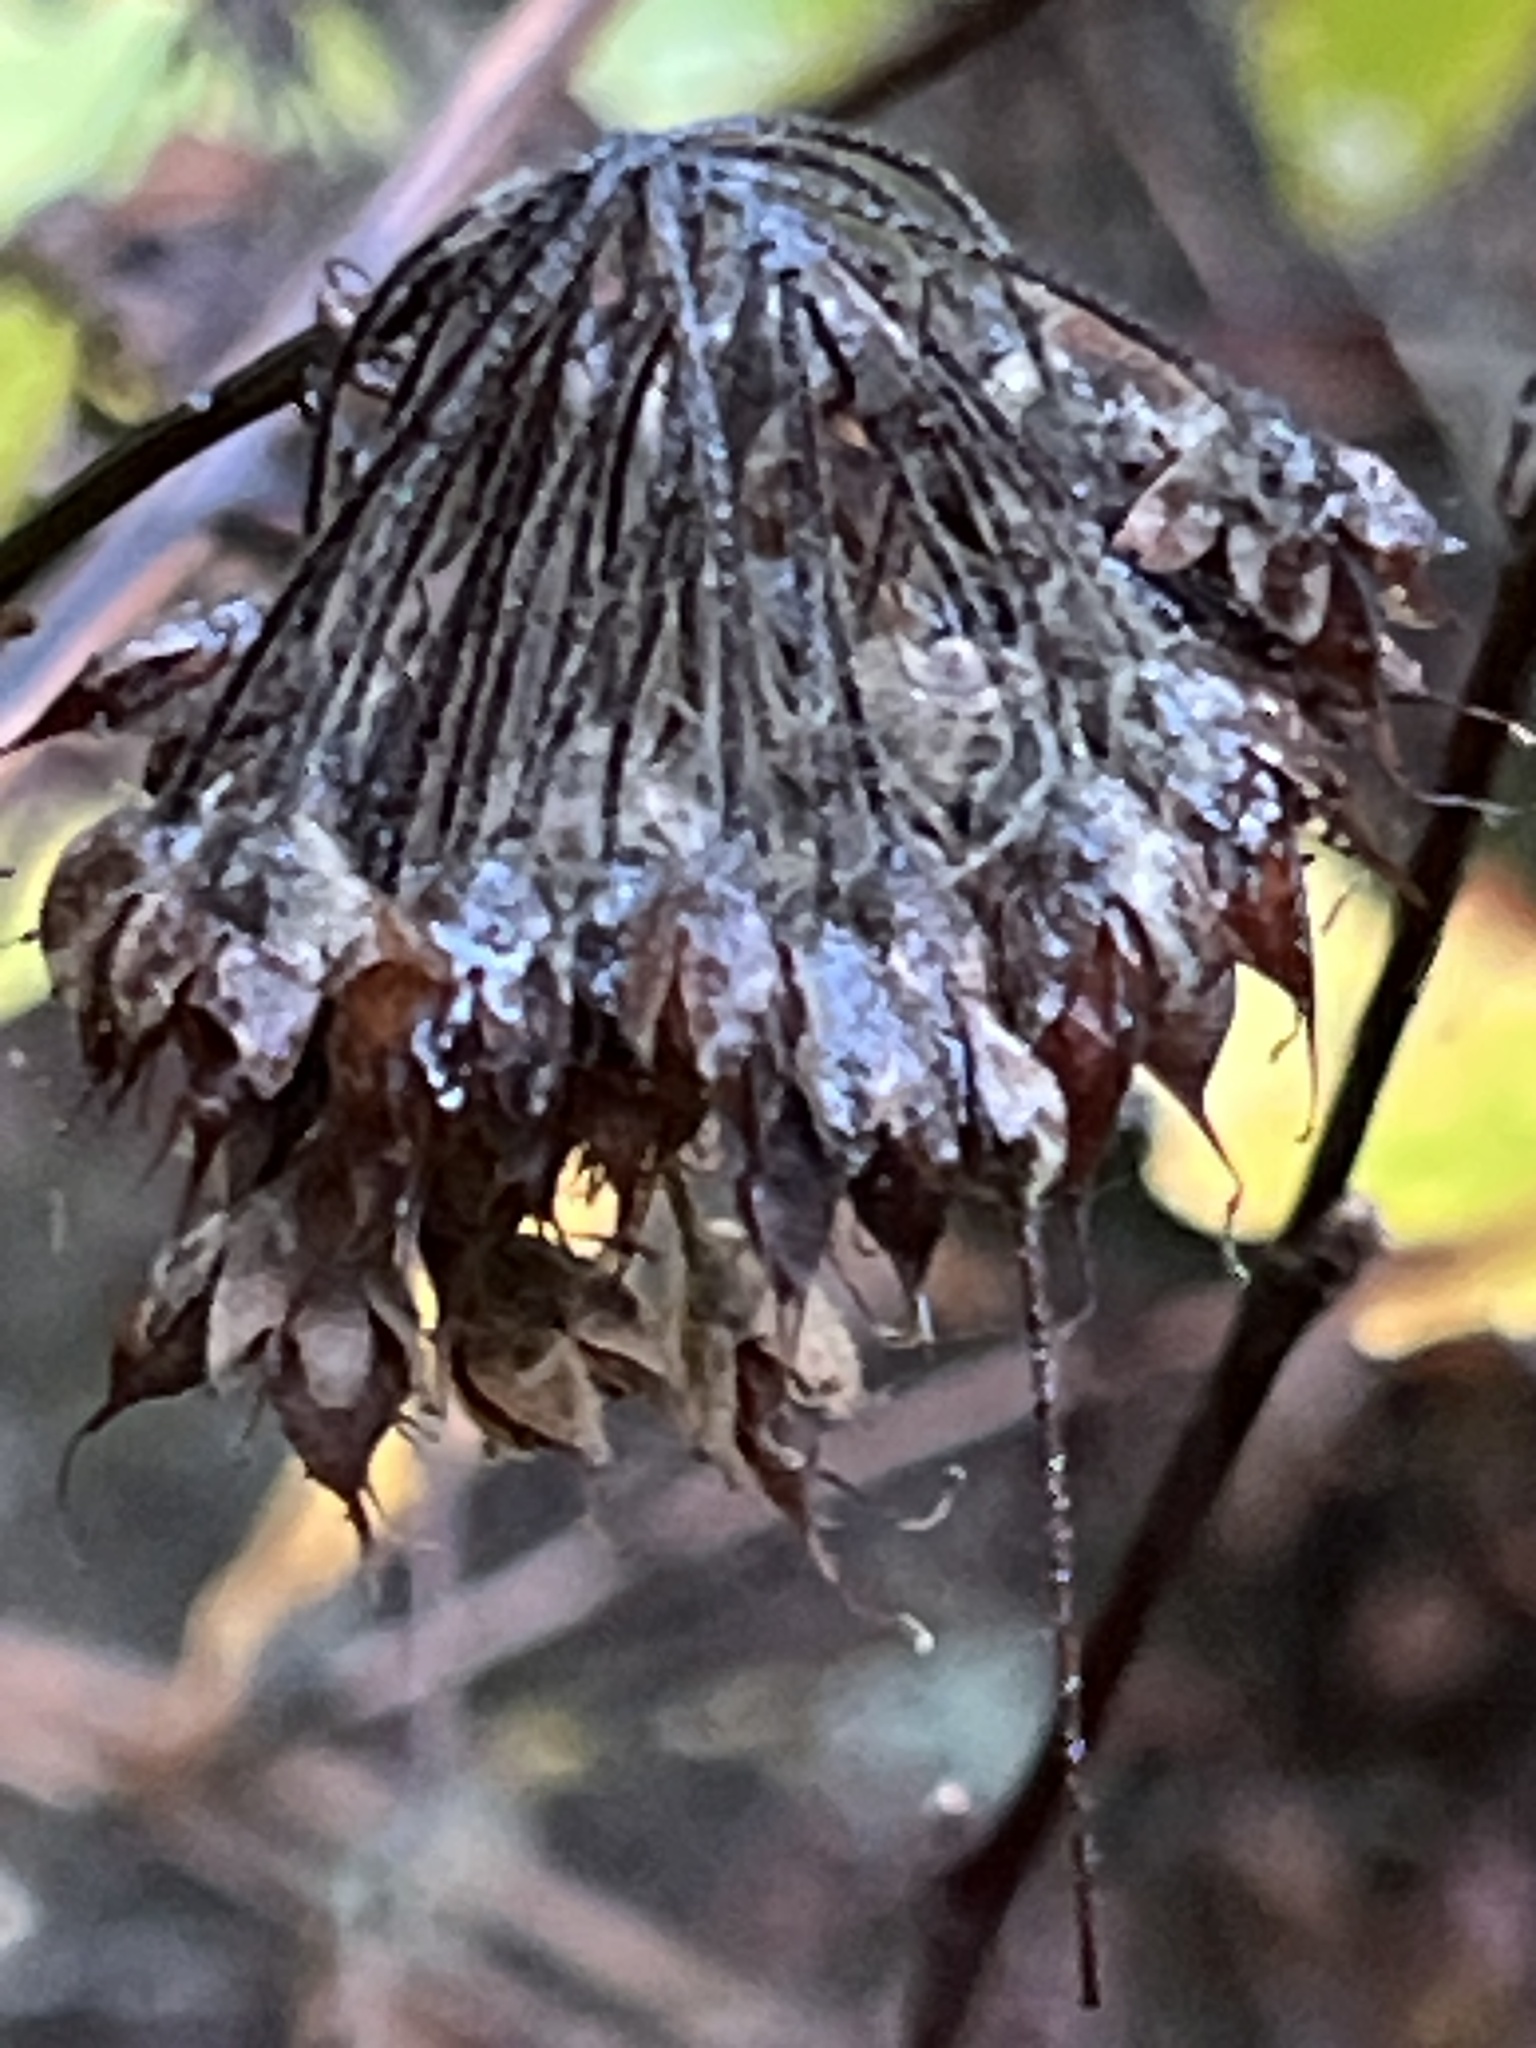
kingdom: Plantae
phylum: Tracheophyta
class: Magnoliopsida
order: Rosales
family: Rosaceae
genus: Physocarpus
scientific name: Physocarpus capitatus
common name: Pacific ninebark
